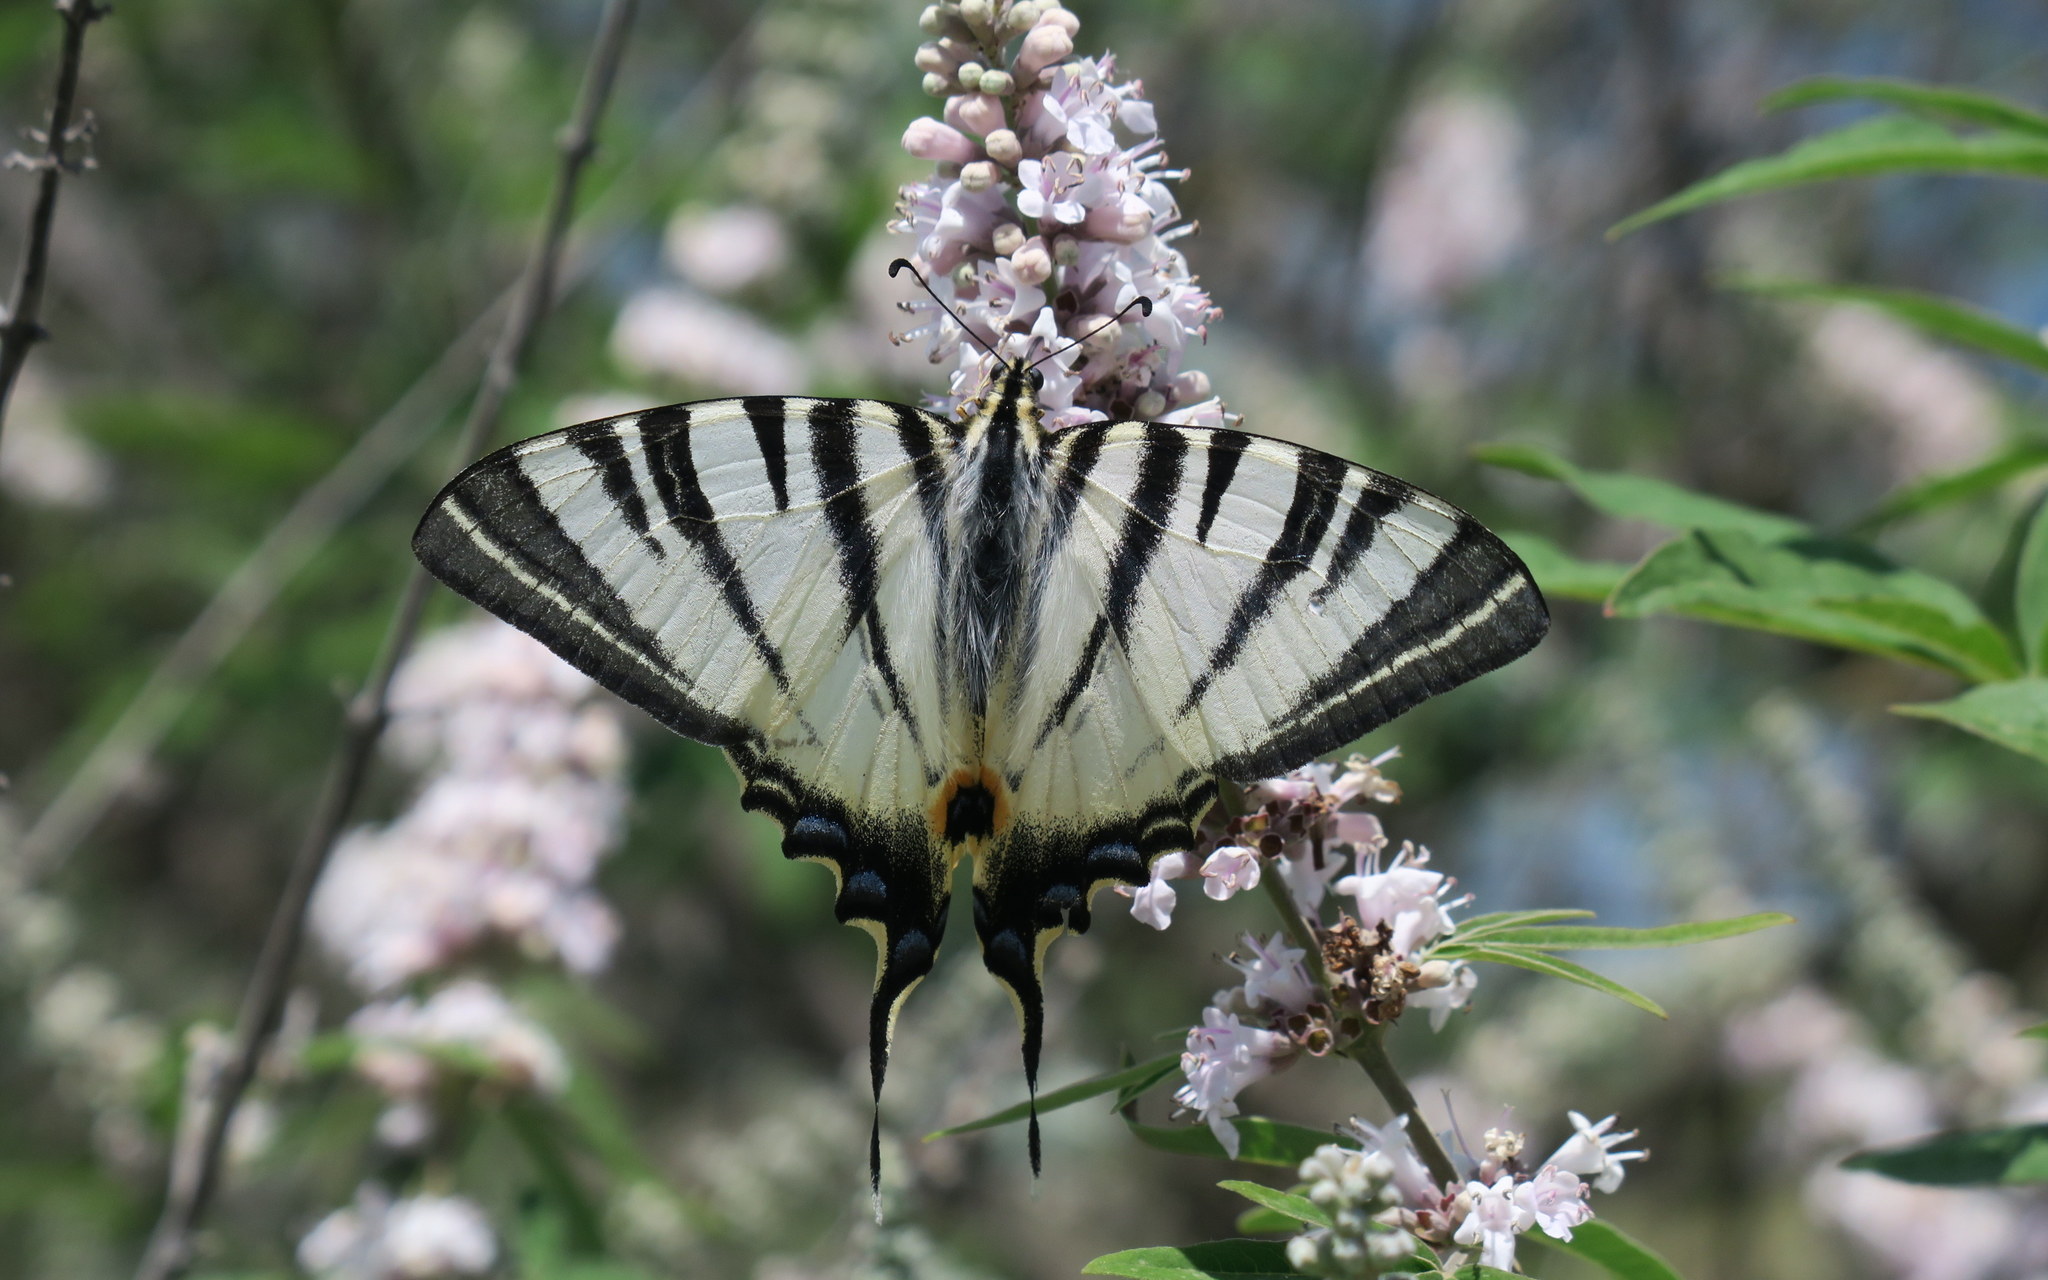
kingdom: Animalia
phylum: Arthropoda
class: Insecta
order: Lepidoptera
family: Papilionidae
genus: Iphiclides
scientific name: Iphiclides podalirius
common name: Scarce swallowtail
